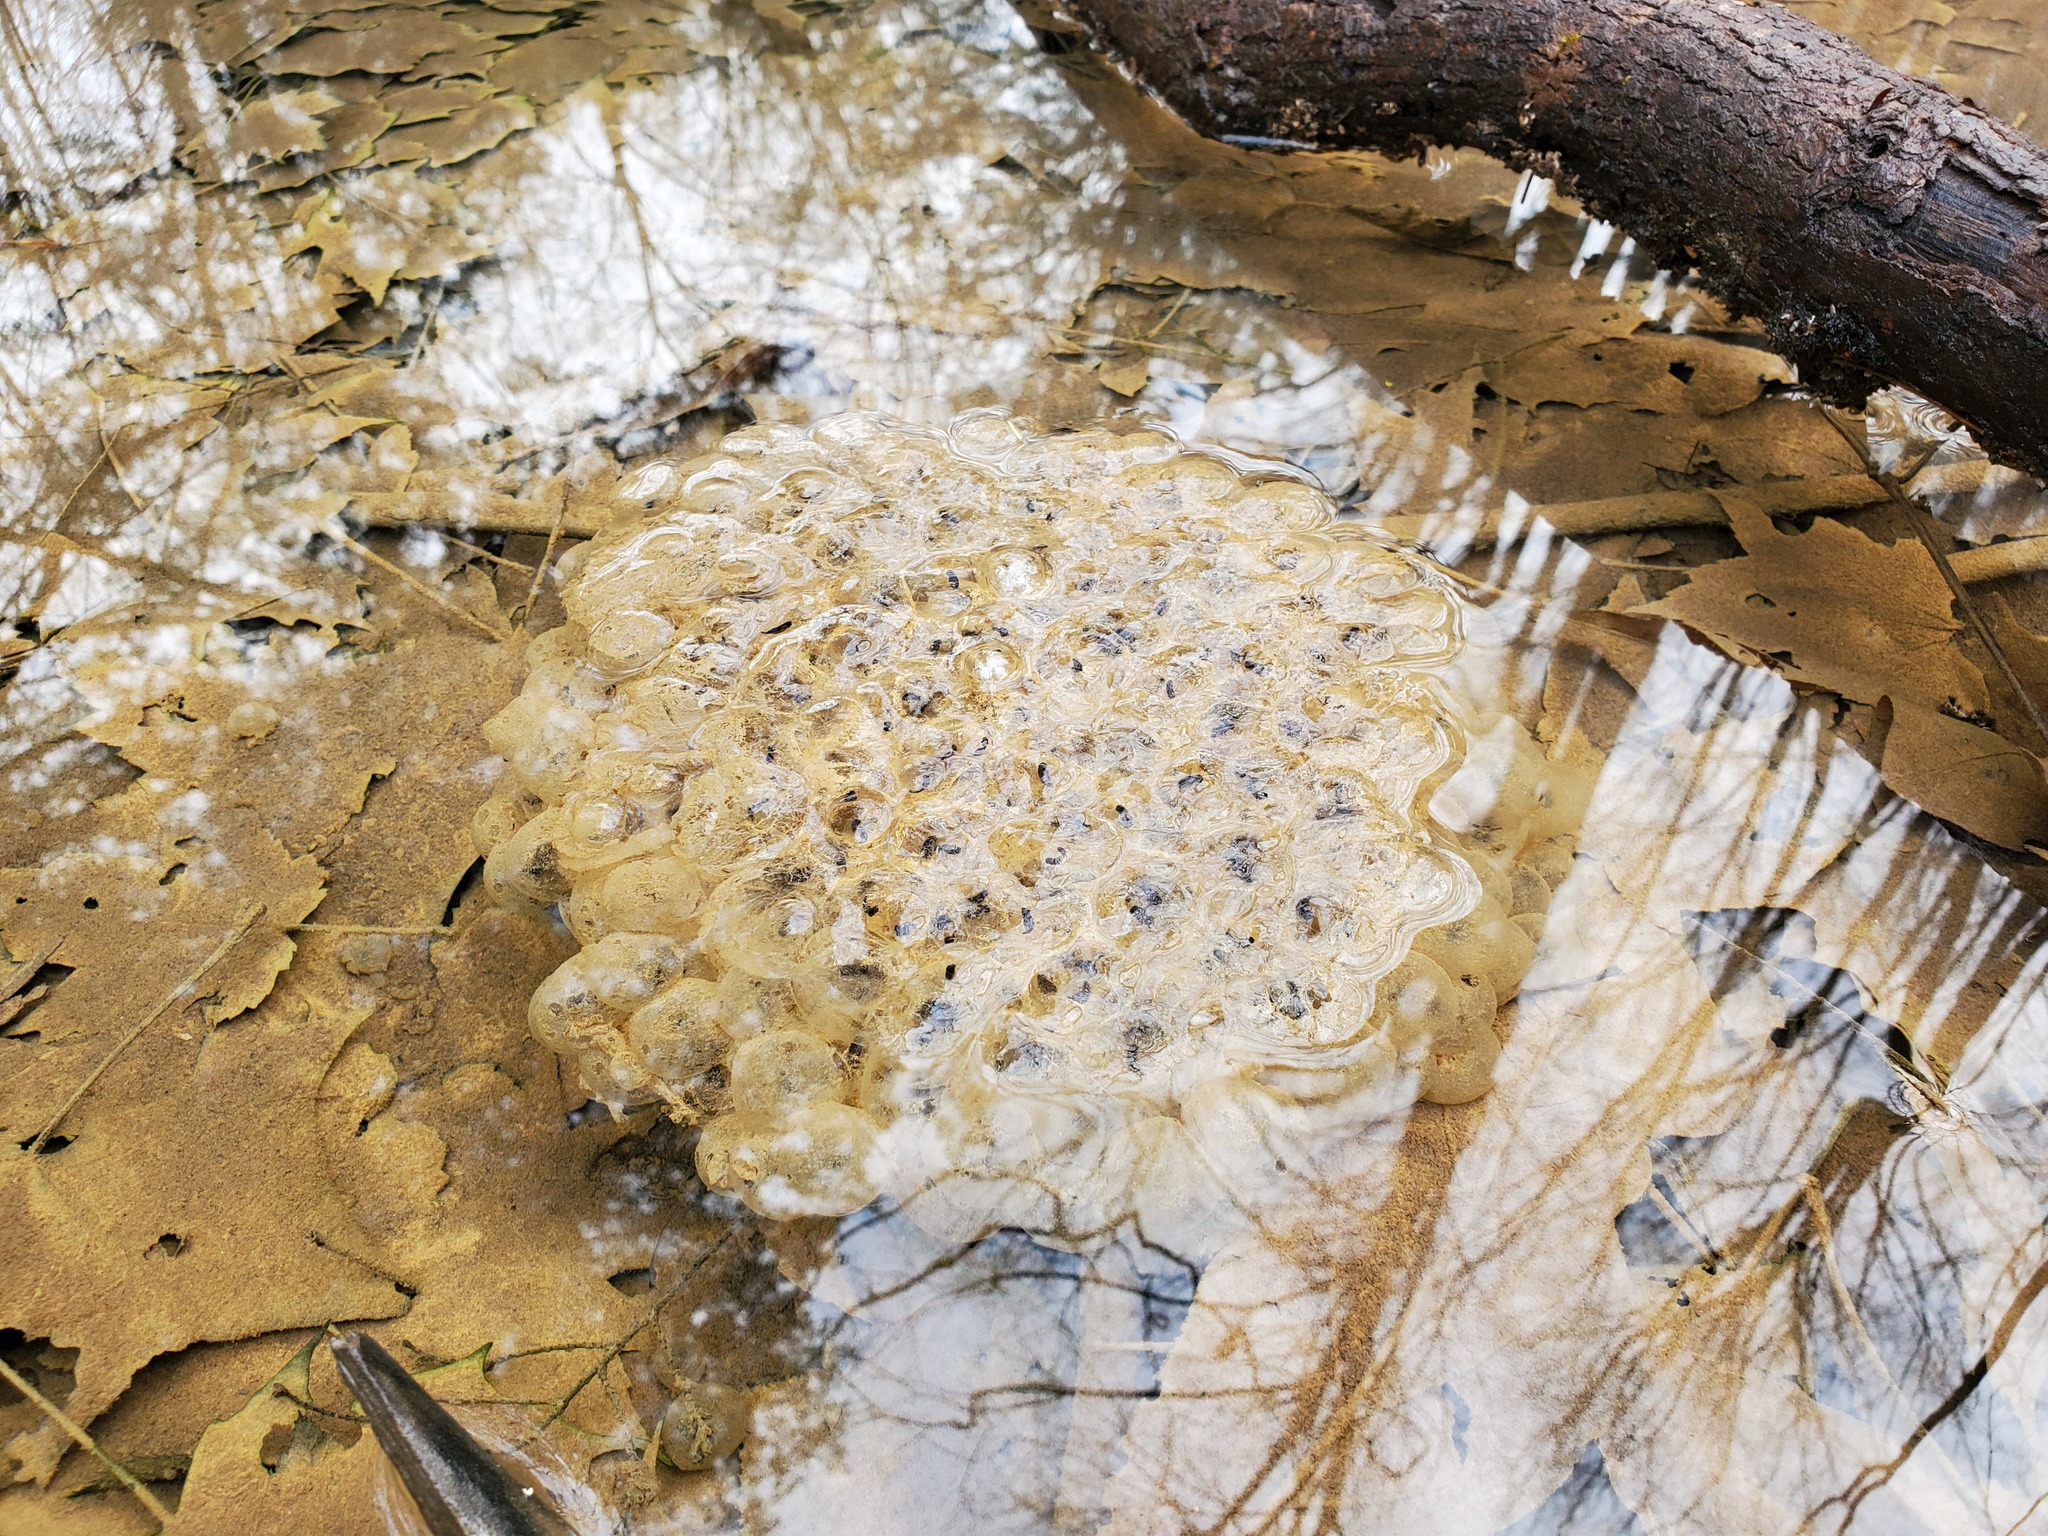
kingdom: Animalia
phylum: Chordata
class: Amphibia
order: Anura
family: Ranidae
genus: Lithobates
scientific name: Lithobates sylvaticus
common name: Wood frog
